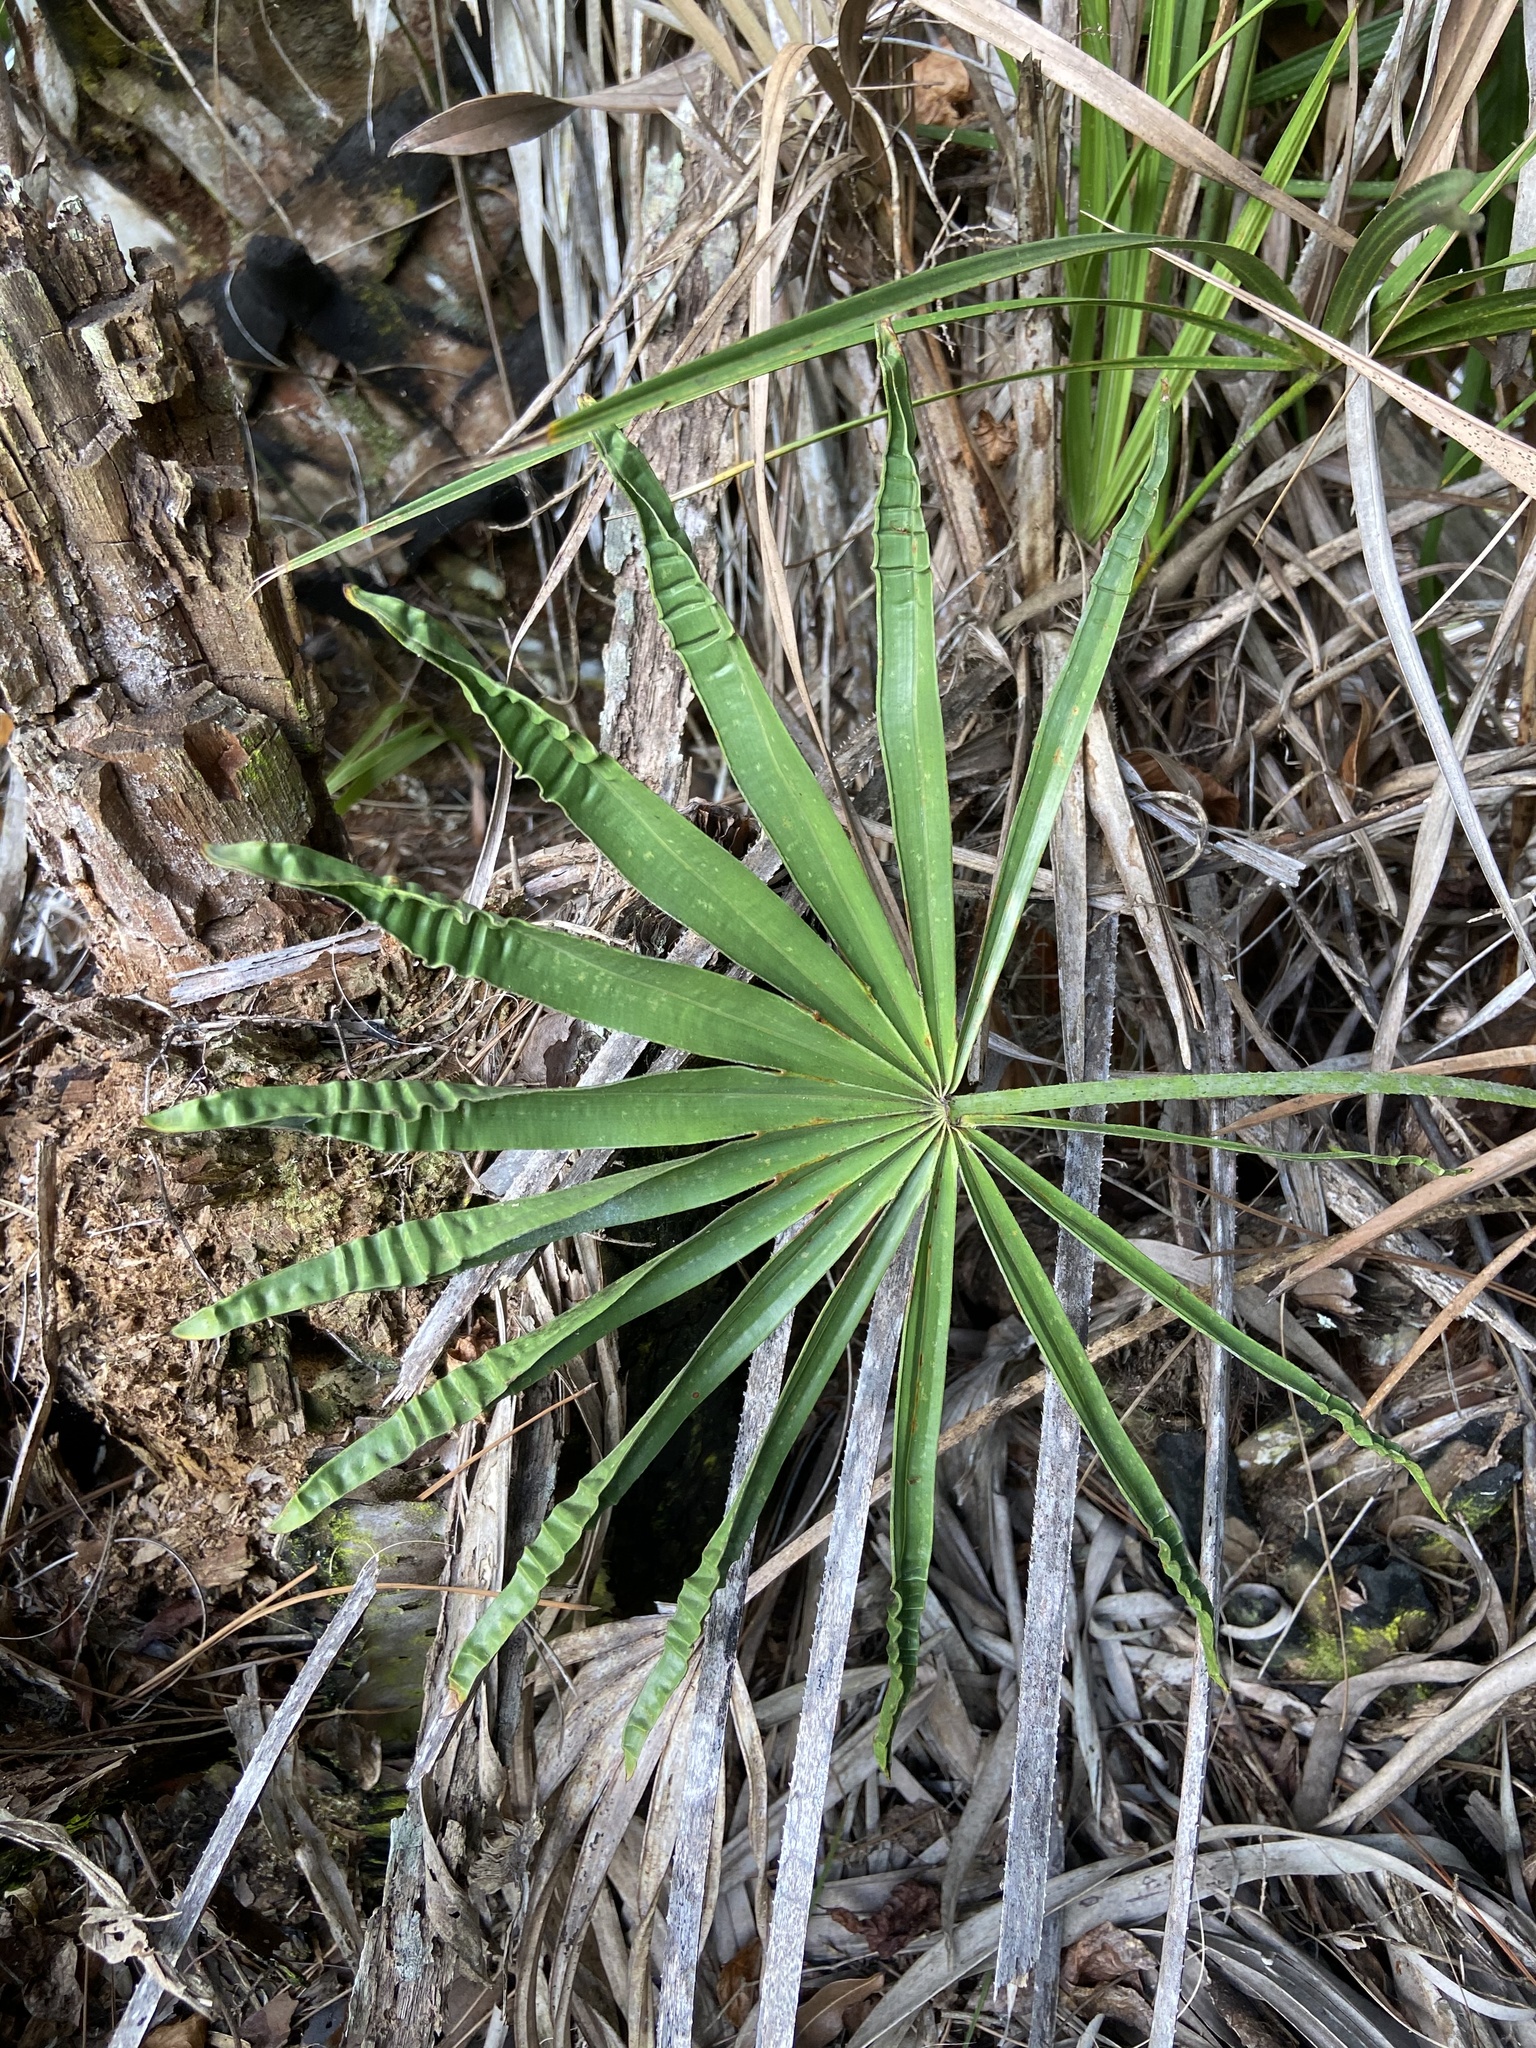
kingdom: Plantae
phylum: Tracheophyta
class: Liliopsida
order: Arecales
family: Arecaceae
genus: Serenoa
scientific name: Serenoa repens
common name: Saw-palmetto
